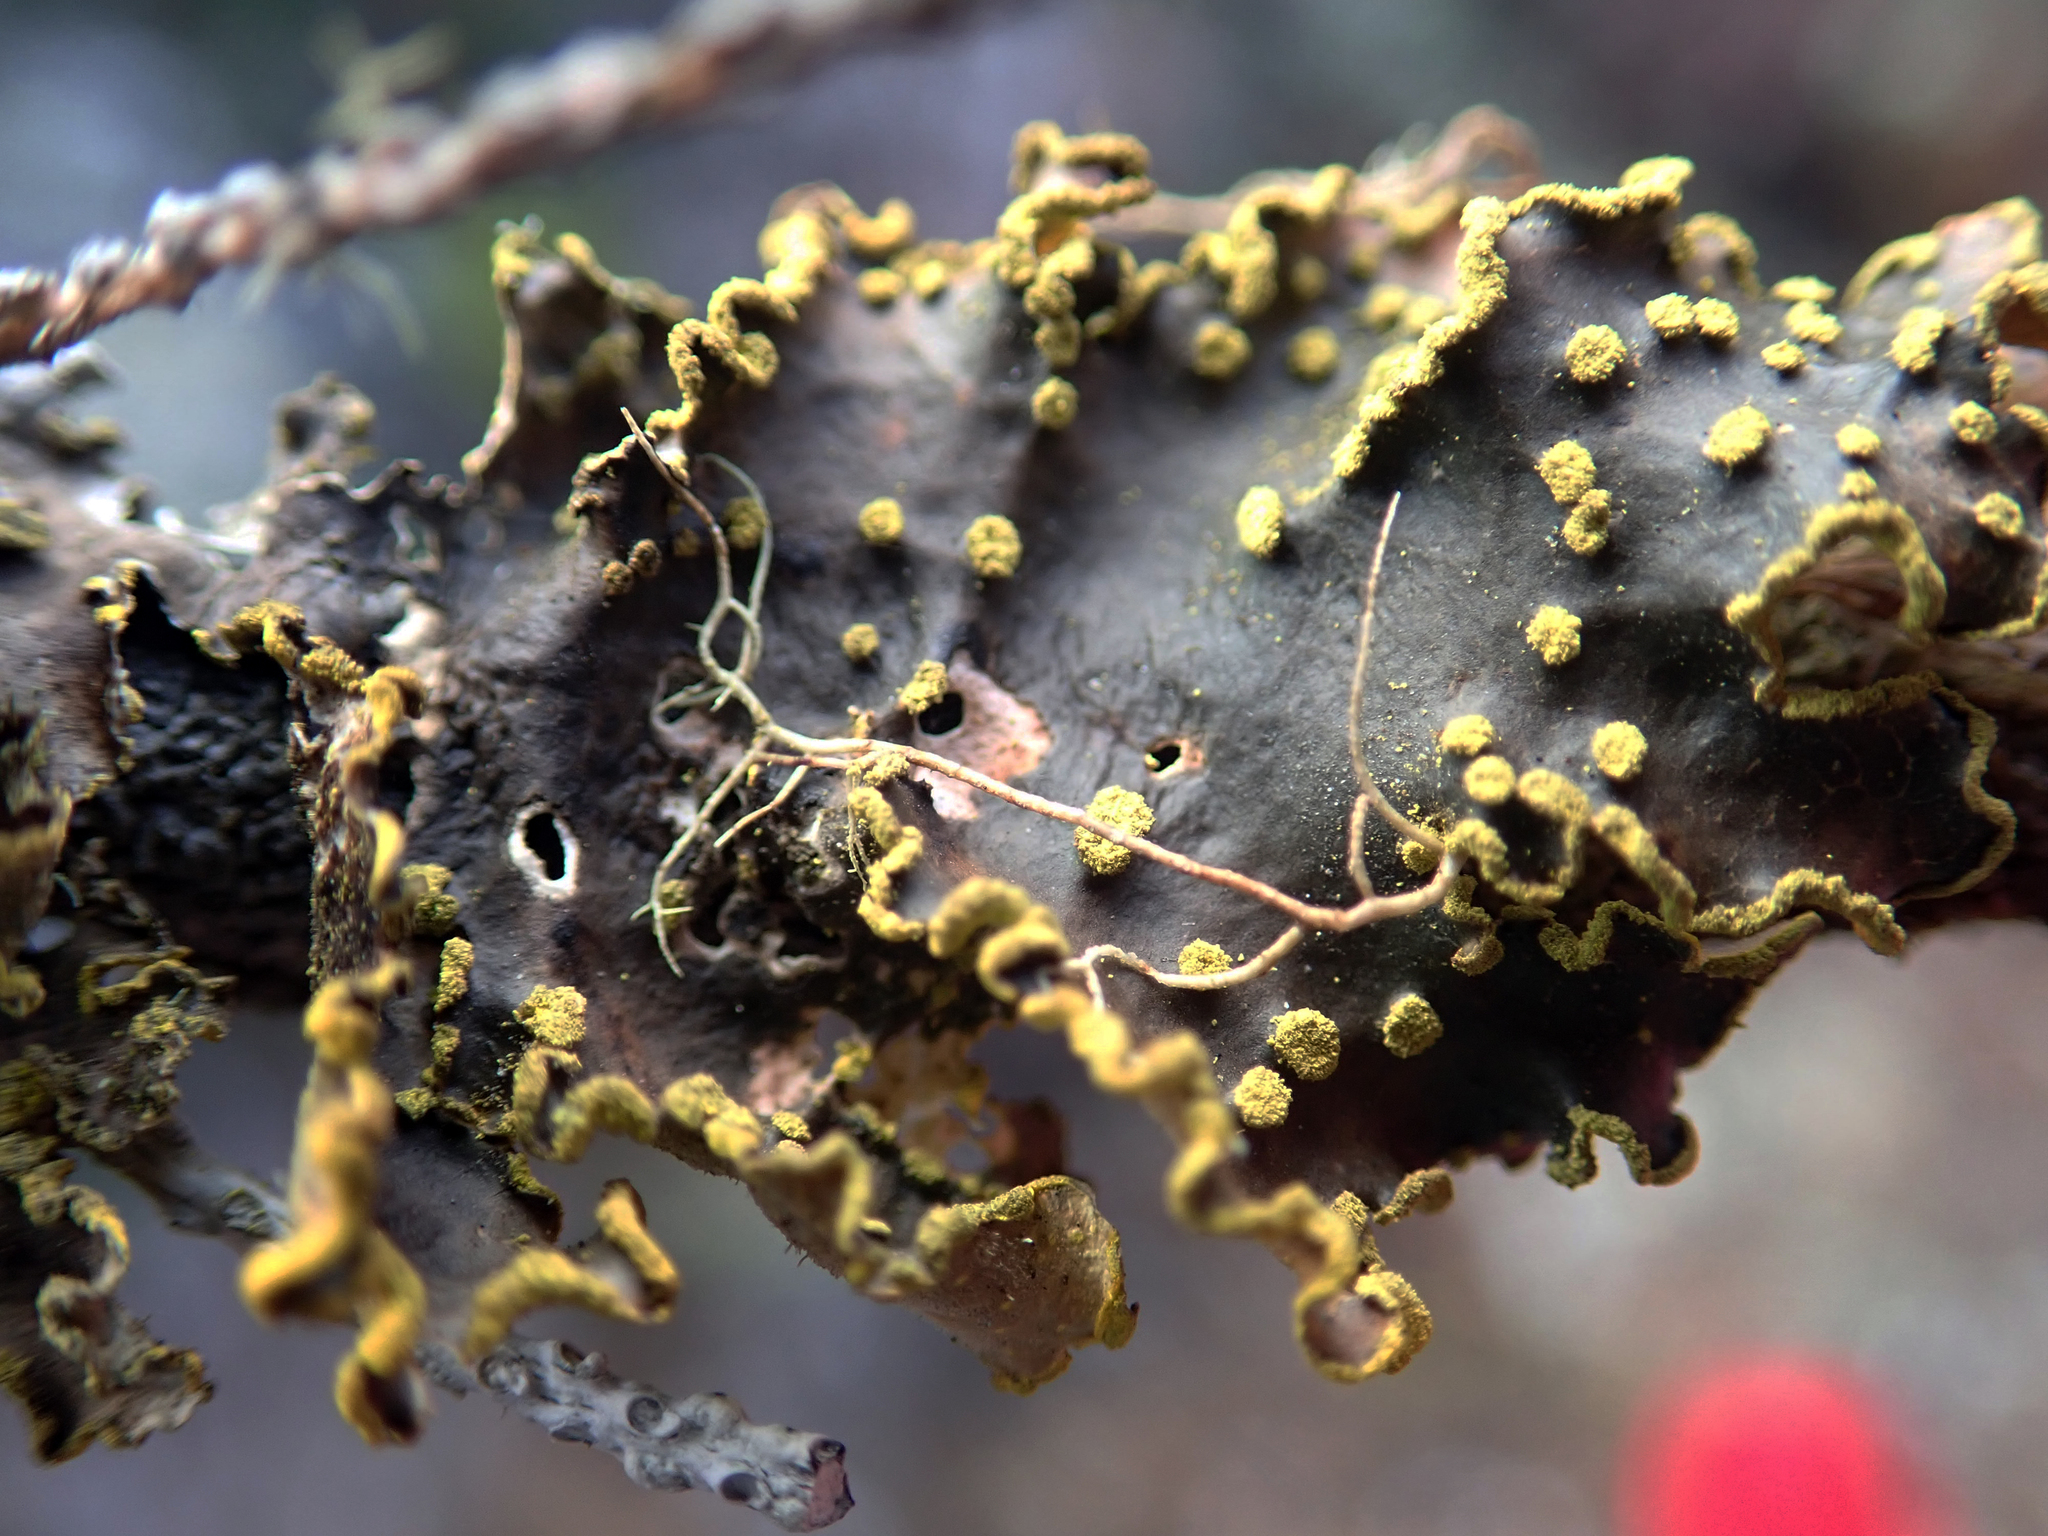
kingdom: Fungi
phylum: Ascomycota
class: Lecanoromycetes
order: Peltigerales
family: Lobariaceae
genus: Pseudocyphellaria
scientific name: Pseudocyphellaria crocata
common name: Golden specklebelly
